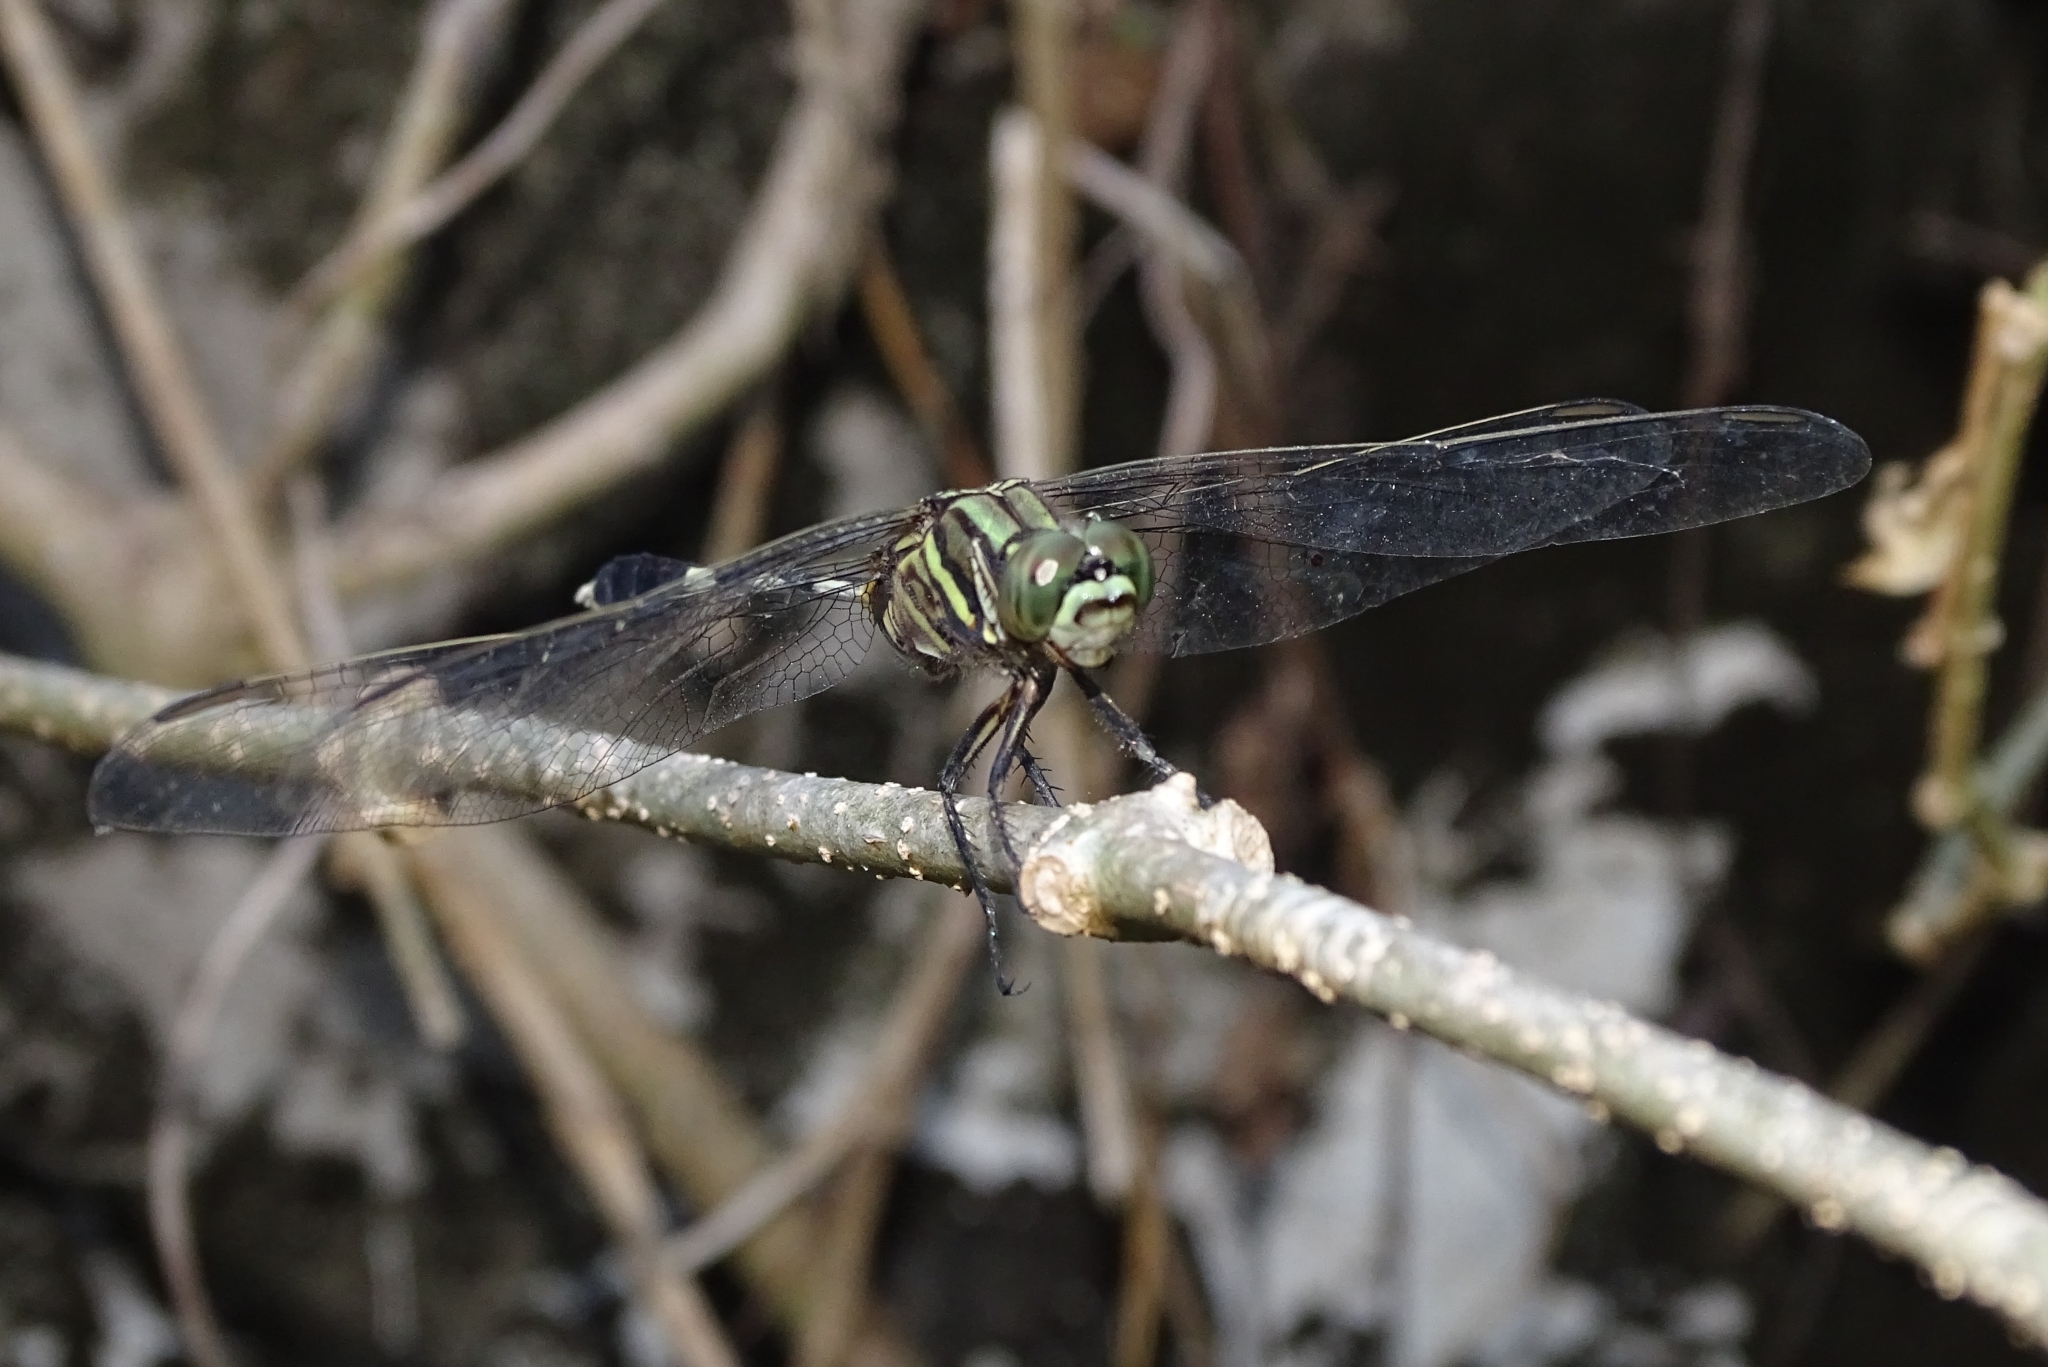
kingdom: Animalia
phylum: Arthropoda
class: Insecta
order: Odonata
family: Libellulidae
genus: Orthetrum
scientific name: Orthetrum sabina
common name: Slender skimmer
